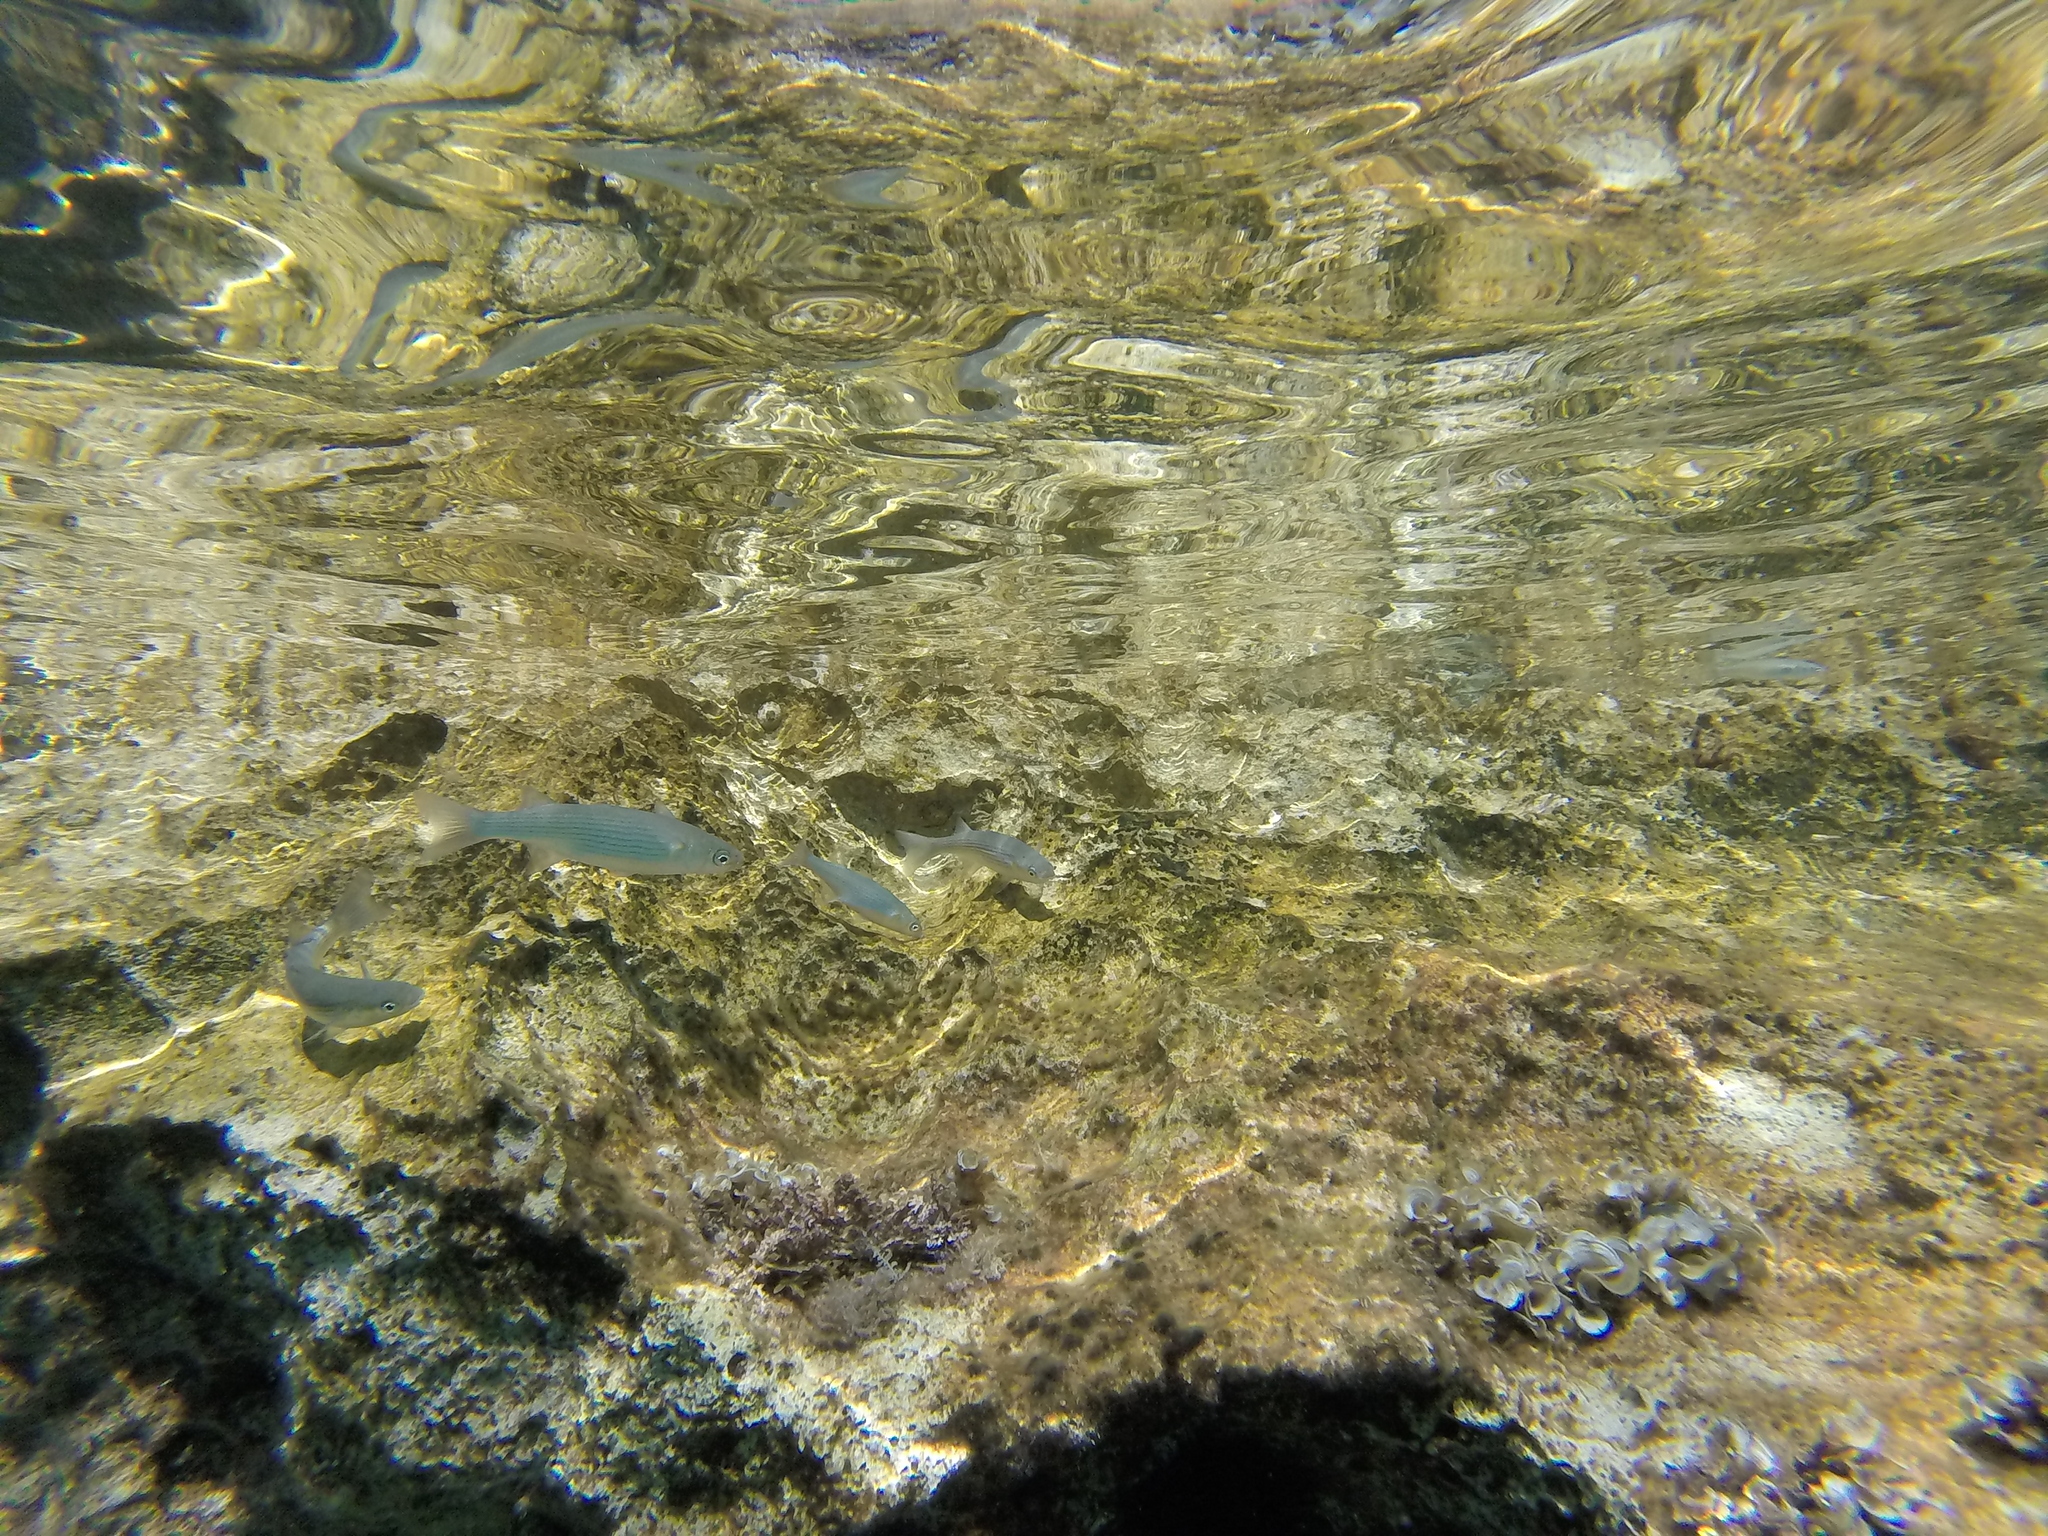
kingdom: Animalia
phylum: Chordata
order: Mugiliformes
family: Mugilidae
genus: Oedalechilus
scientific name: Oedalechilus labeo
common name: Boxlip mullet
